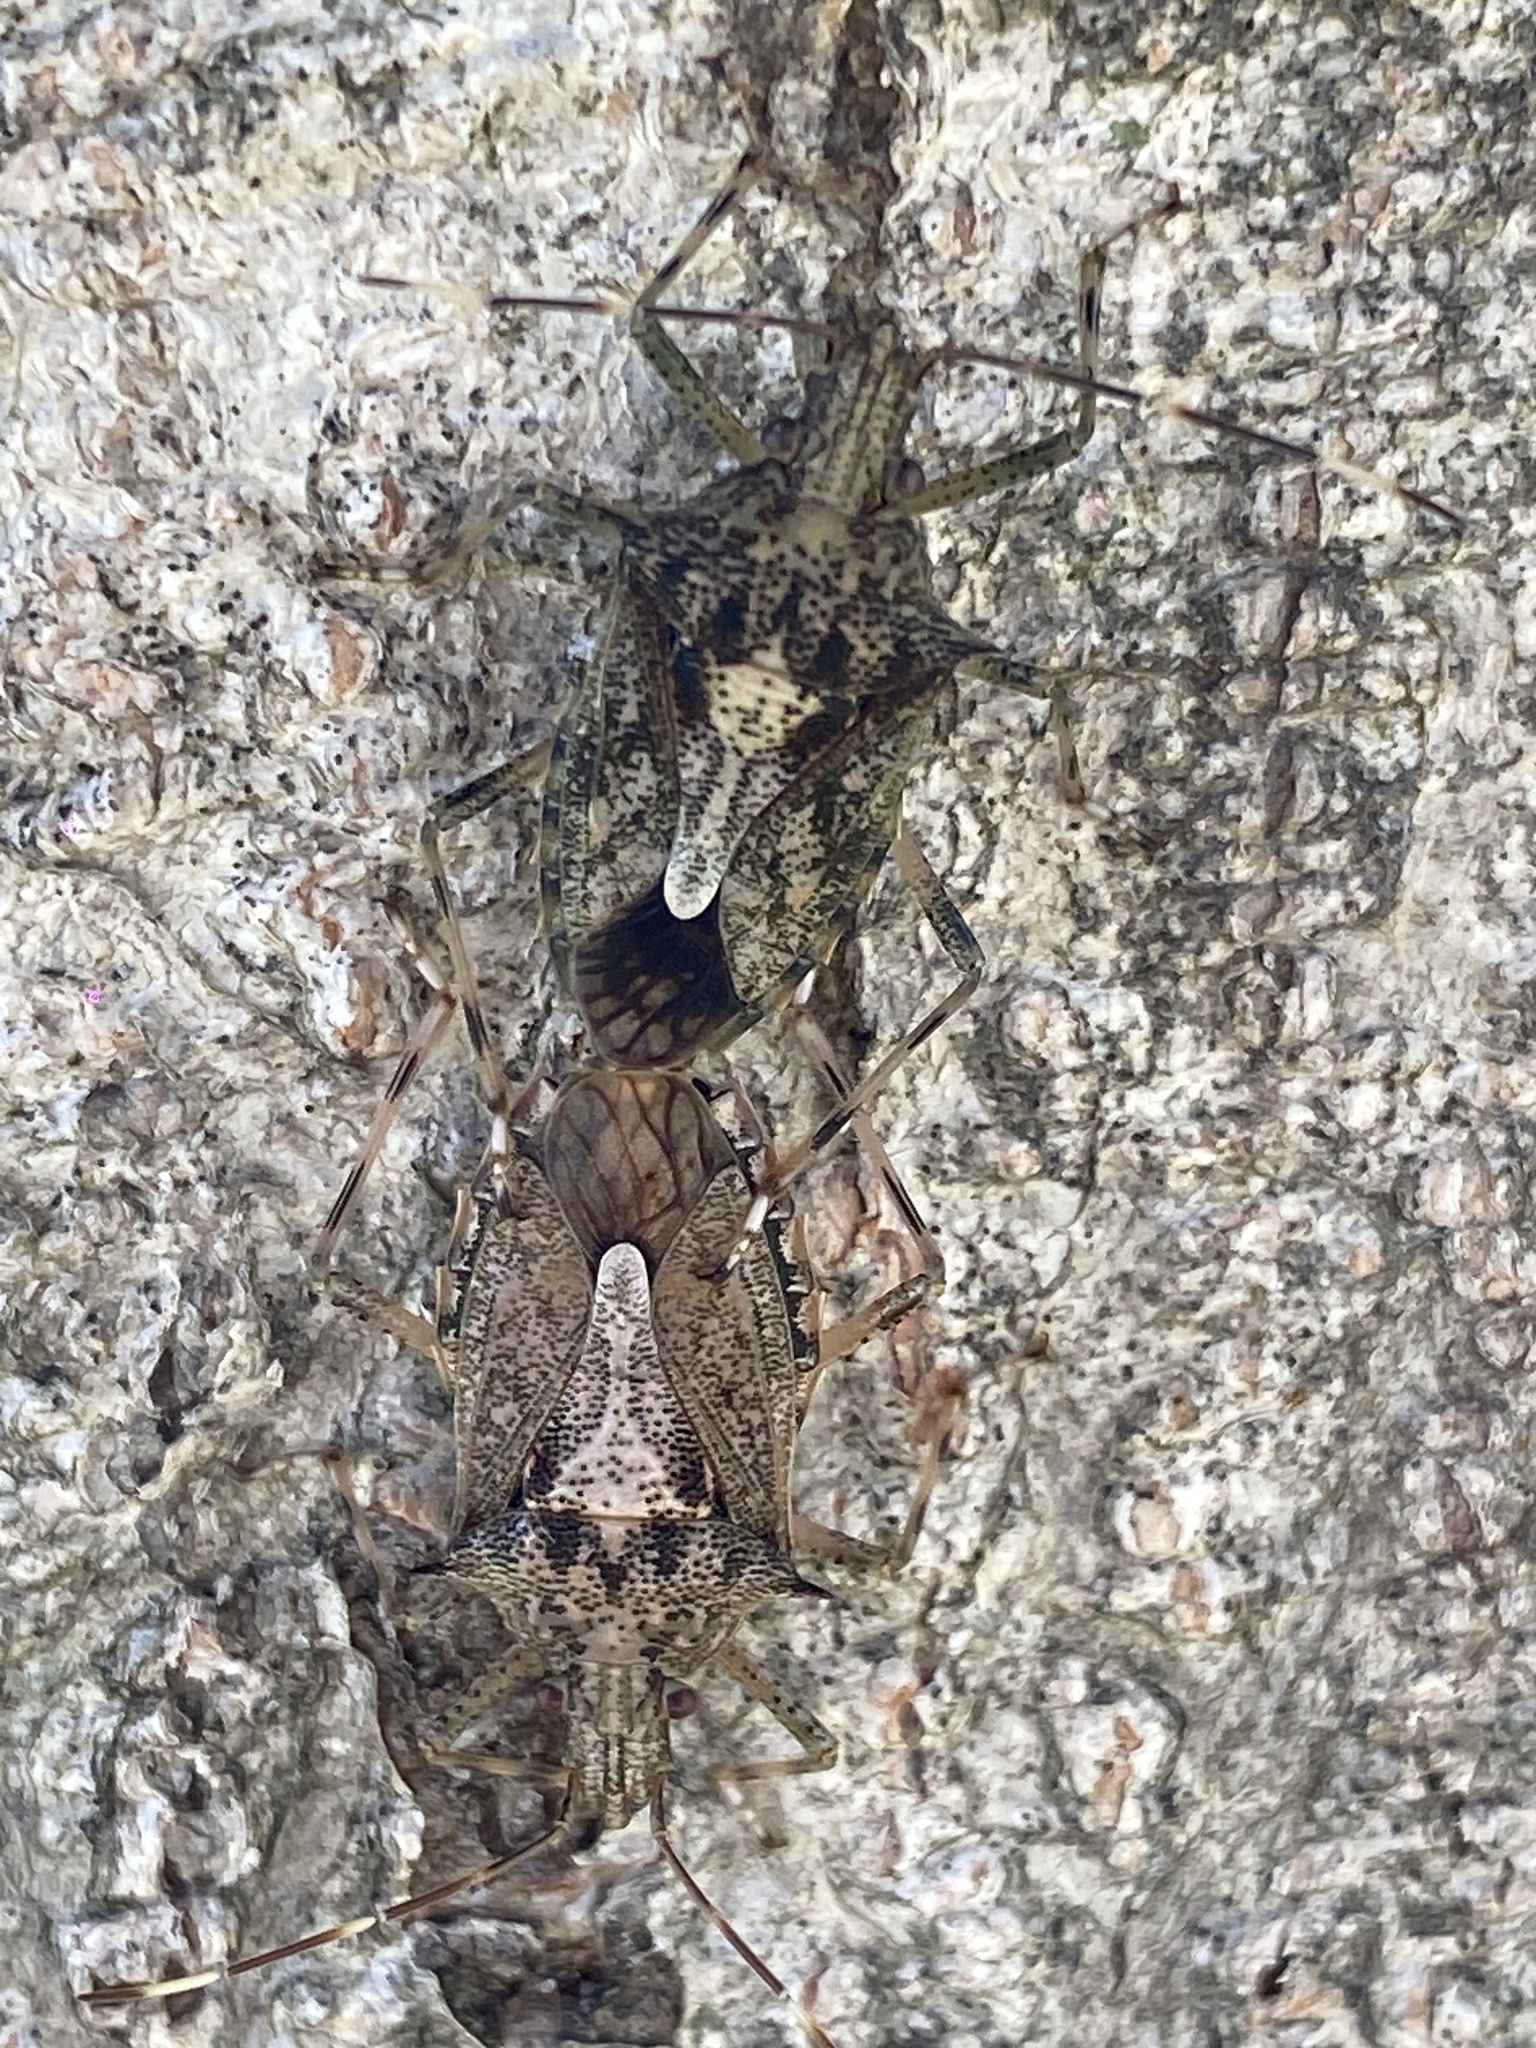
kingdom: Animalia
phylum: Arthropoda
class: Insecta
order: Hemiptera
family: Pentatomidae
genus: Bromocoris
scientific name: Bromocoris
